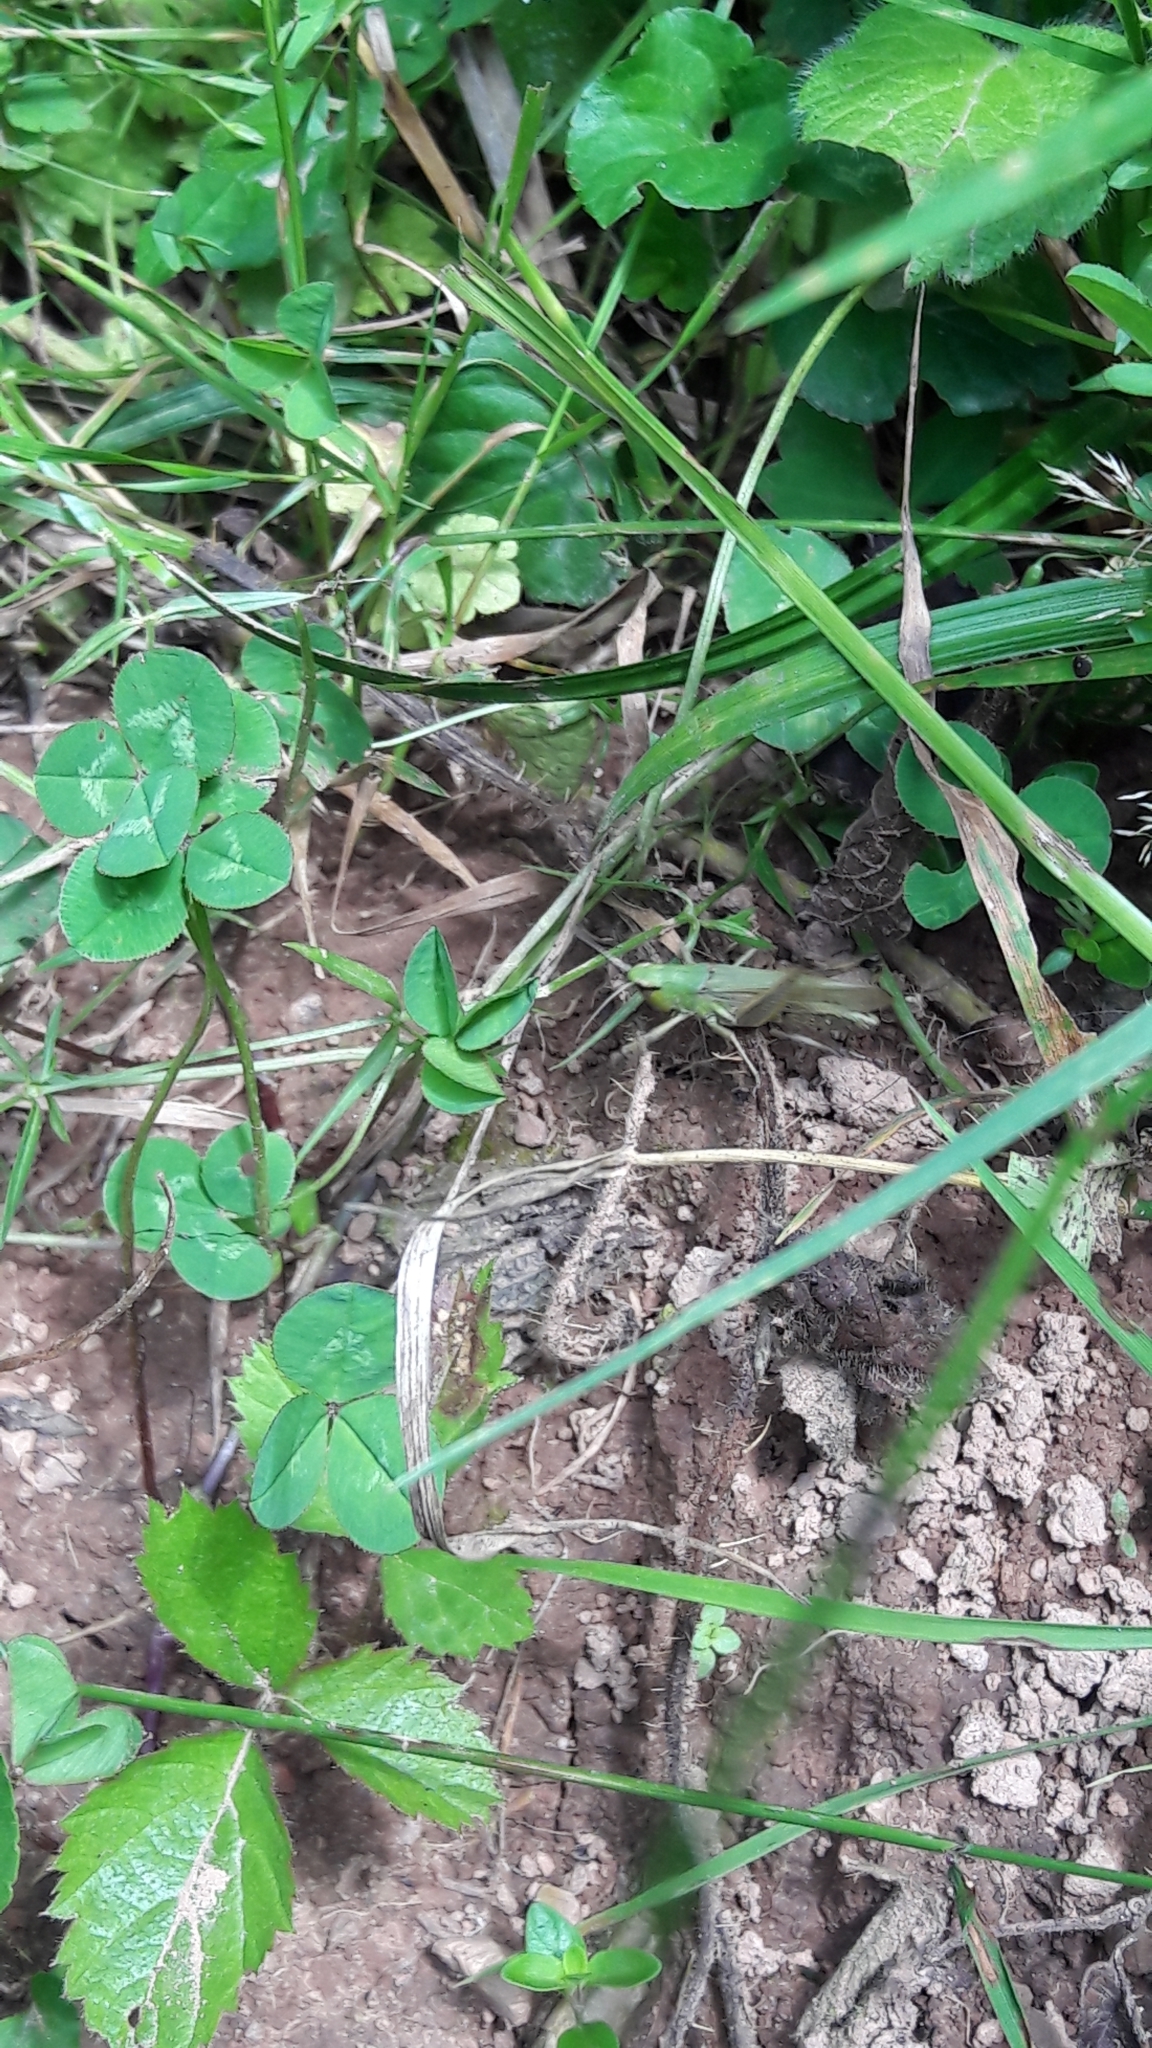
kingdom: Animalia
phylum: Arthropoda
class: Insecta
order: Orthoptera
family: Acrididae
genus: Pseudochorthippus
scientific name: Pseudochorthippus parallelus
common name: Meadow grasshopper
